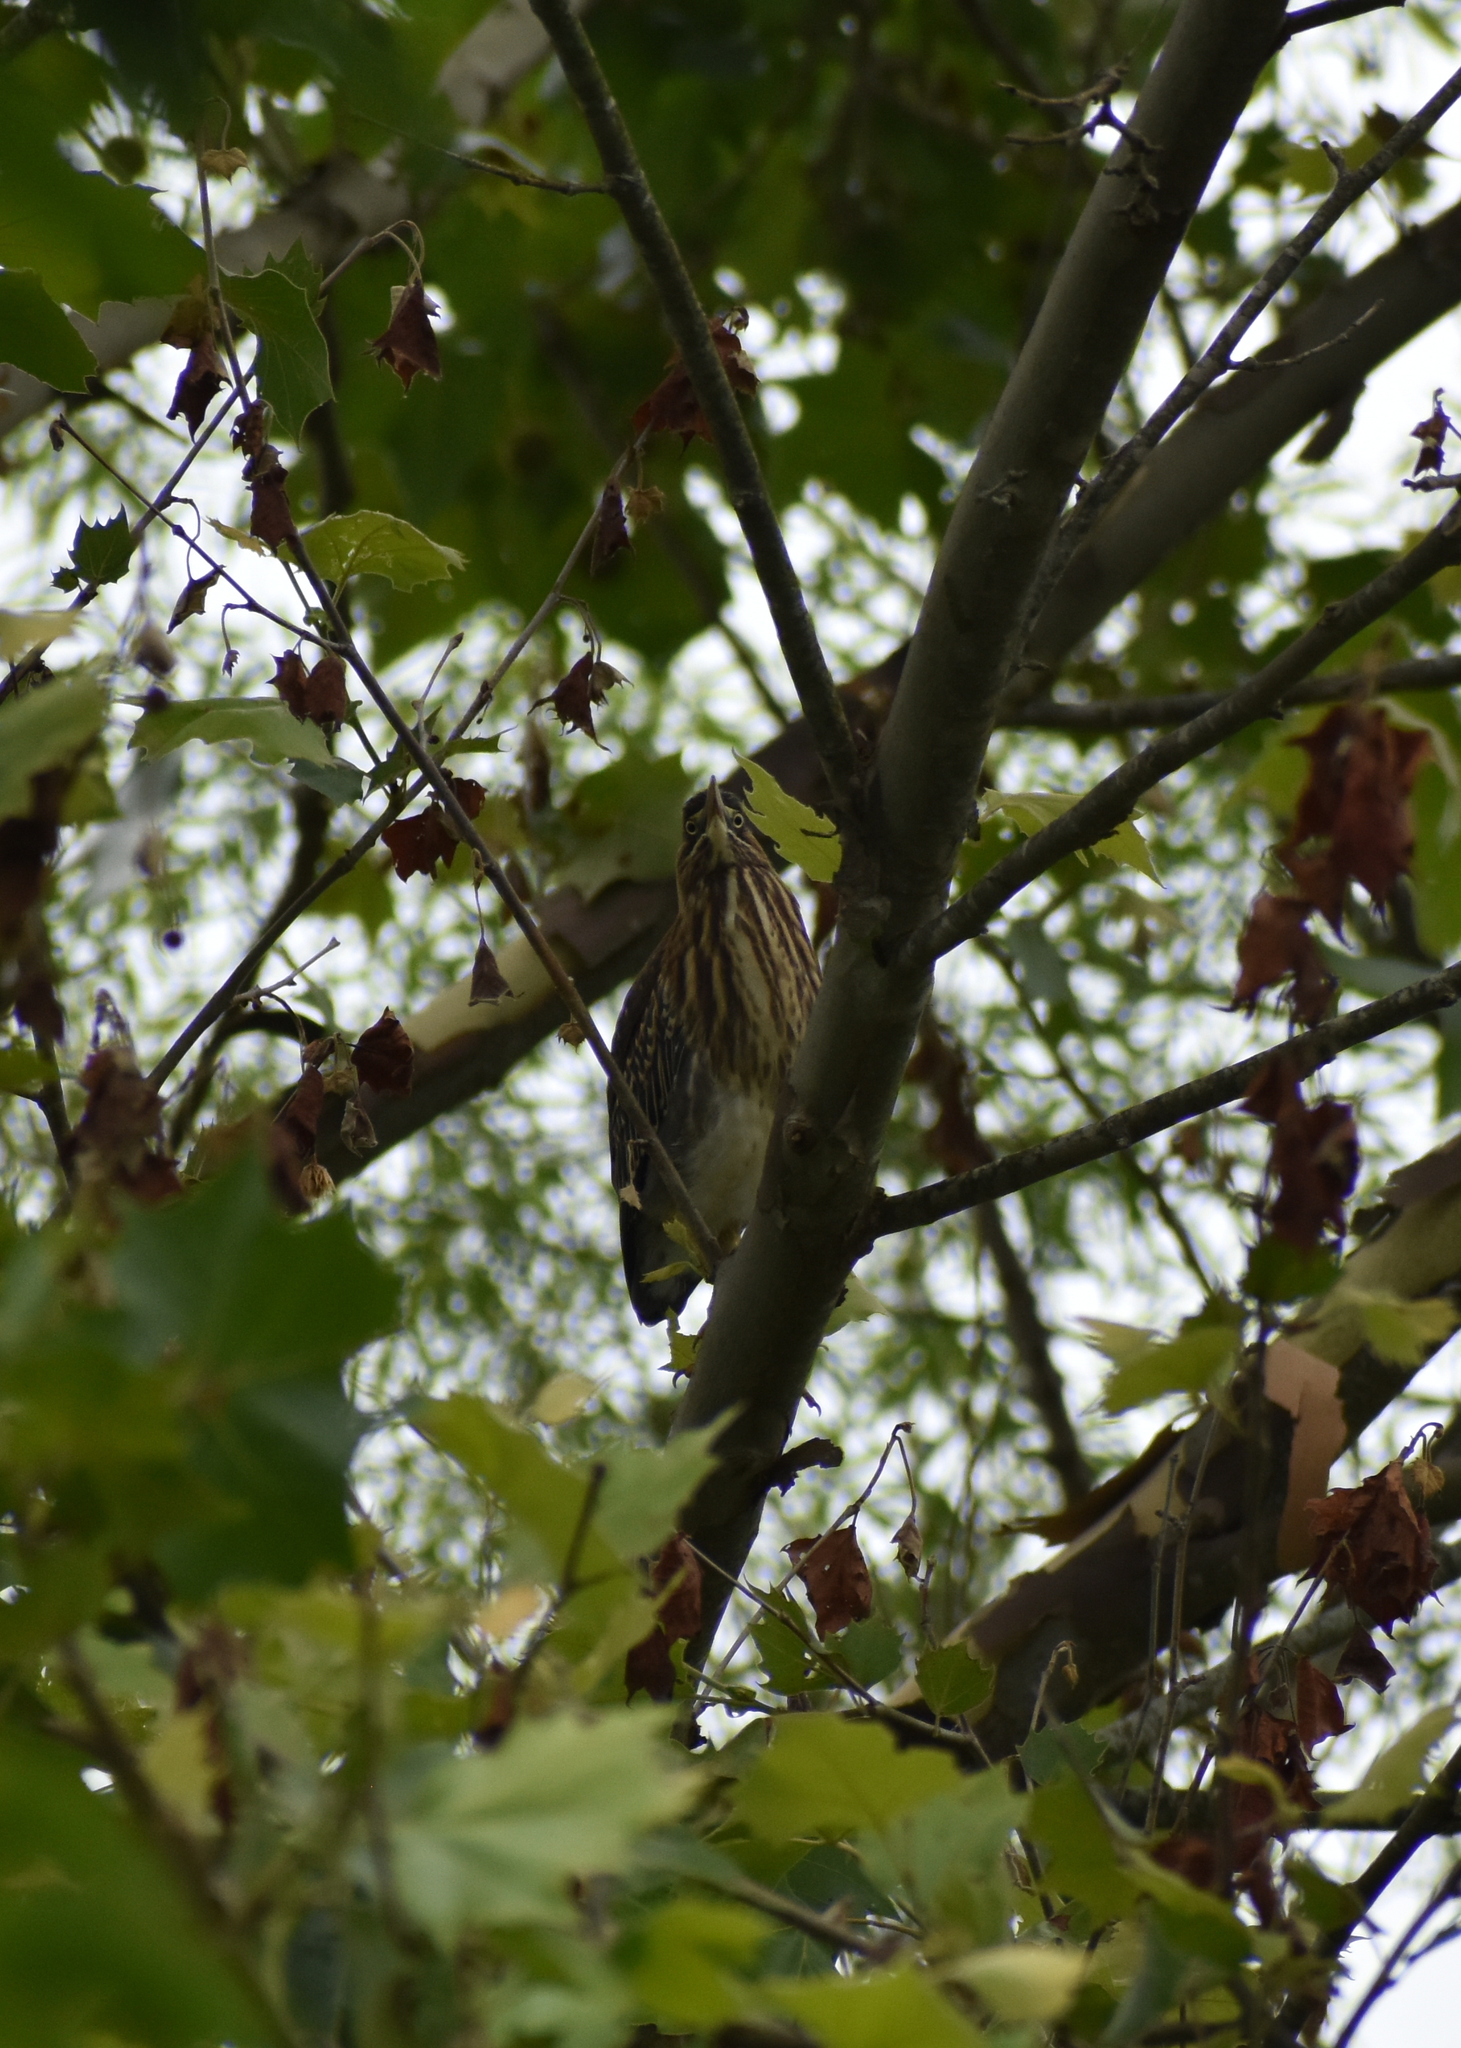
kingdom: Animalia
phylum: Chordata
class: Aves
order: Pelecaniformes
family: Ardeidae
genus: Butorides
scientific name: Butorides virescens
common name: Green heron
